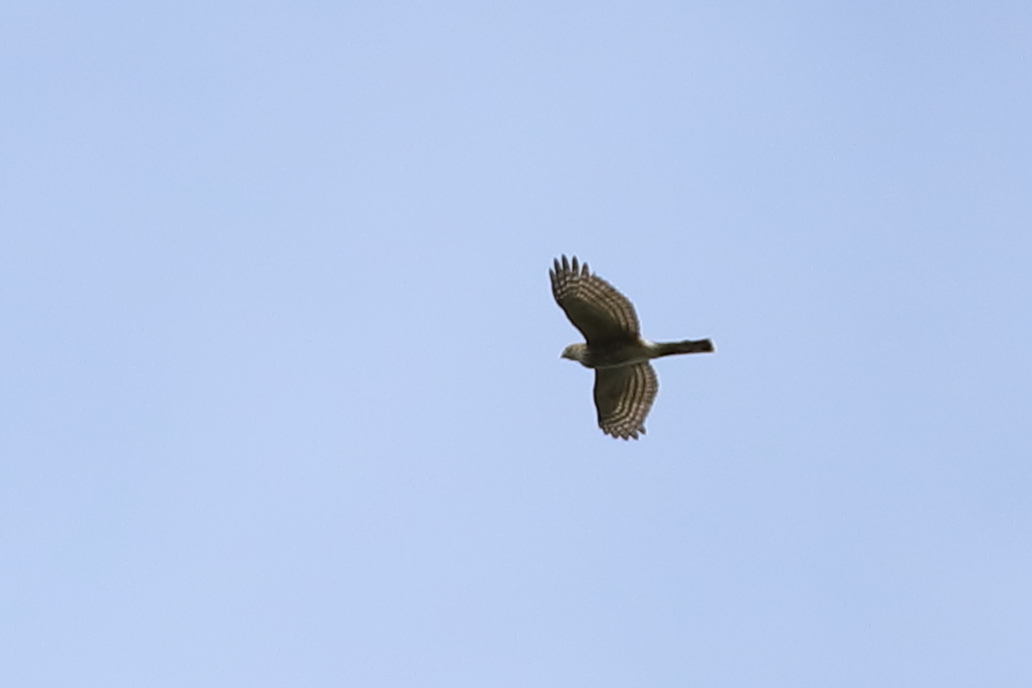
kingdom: Animalia
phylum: Chordata
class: Aves
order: Accipitriformes
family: Accipitridae
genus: Accipiter
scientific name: Accipiter striatus
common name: Sharp-shinned hawk
